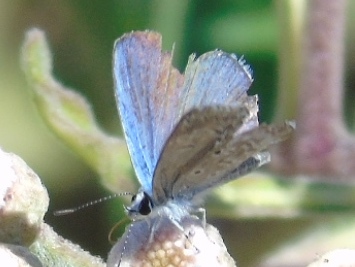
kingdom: Animalia
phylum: Arthropoda
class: Insecta
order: Lepidoptera
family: Lycaenidae
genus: Hemiargus
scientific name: Hemiargus ceraunus
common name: Ceraunus blue
